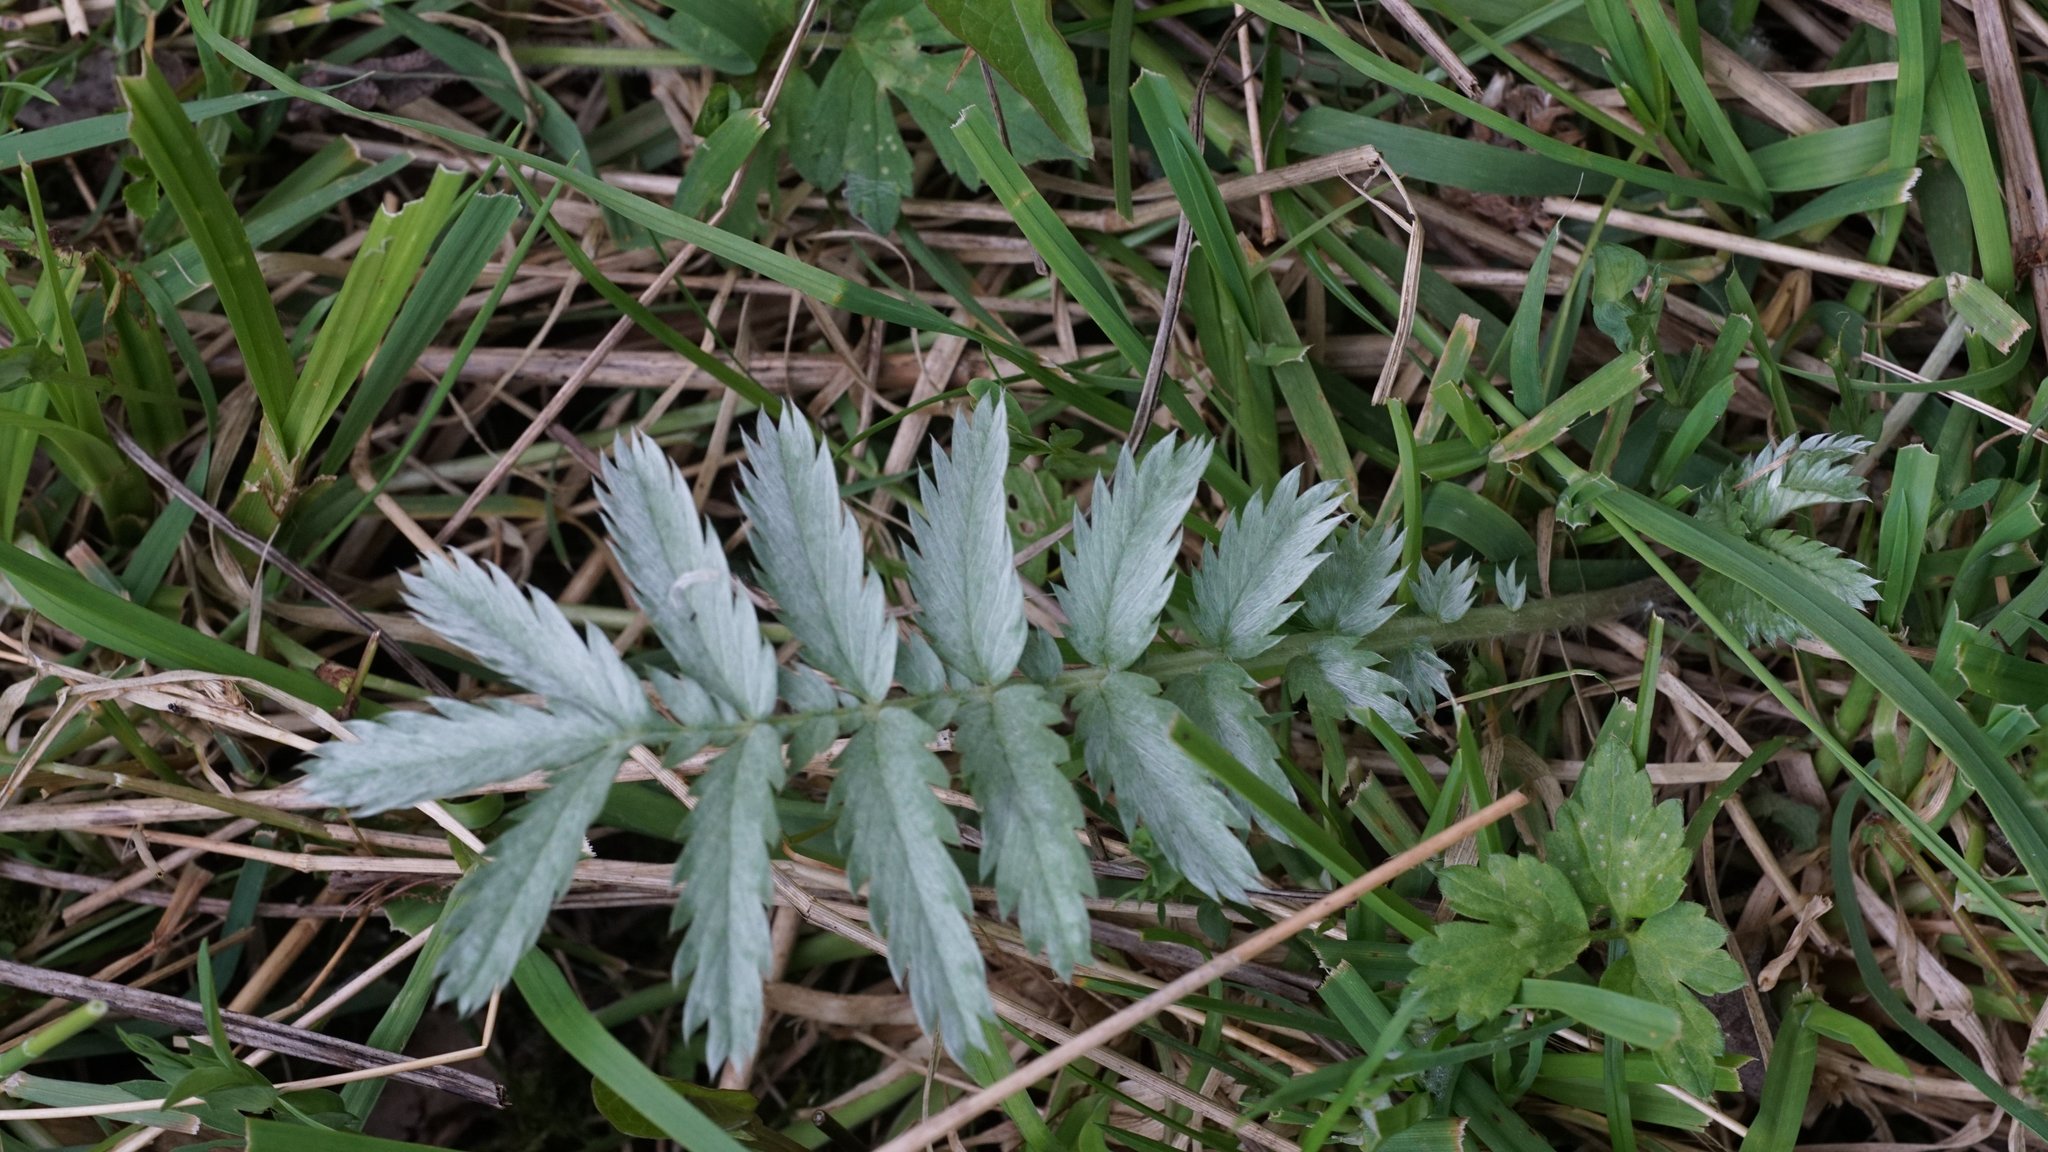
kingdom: Plantae
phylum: Tracheophyta
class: Magnoliopsida
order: Rosales
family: Rosaceae
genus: Argentina
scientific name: Argentina anserina
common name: Common silverweed
